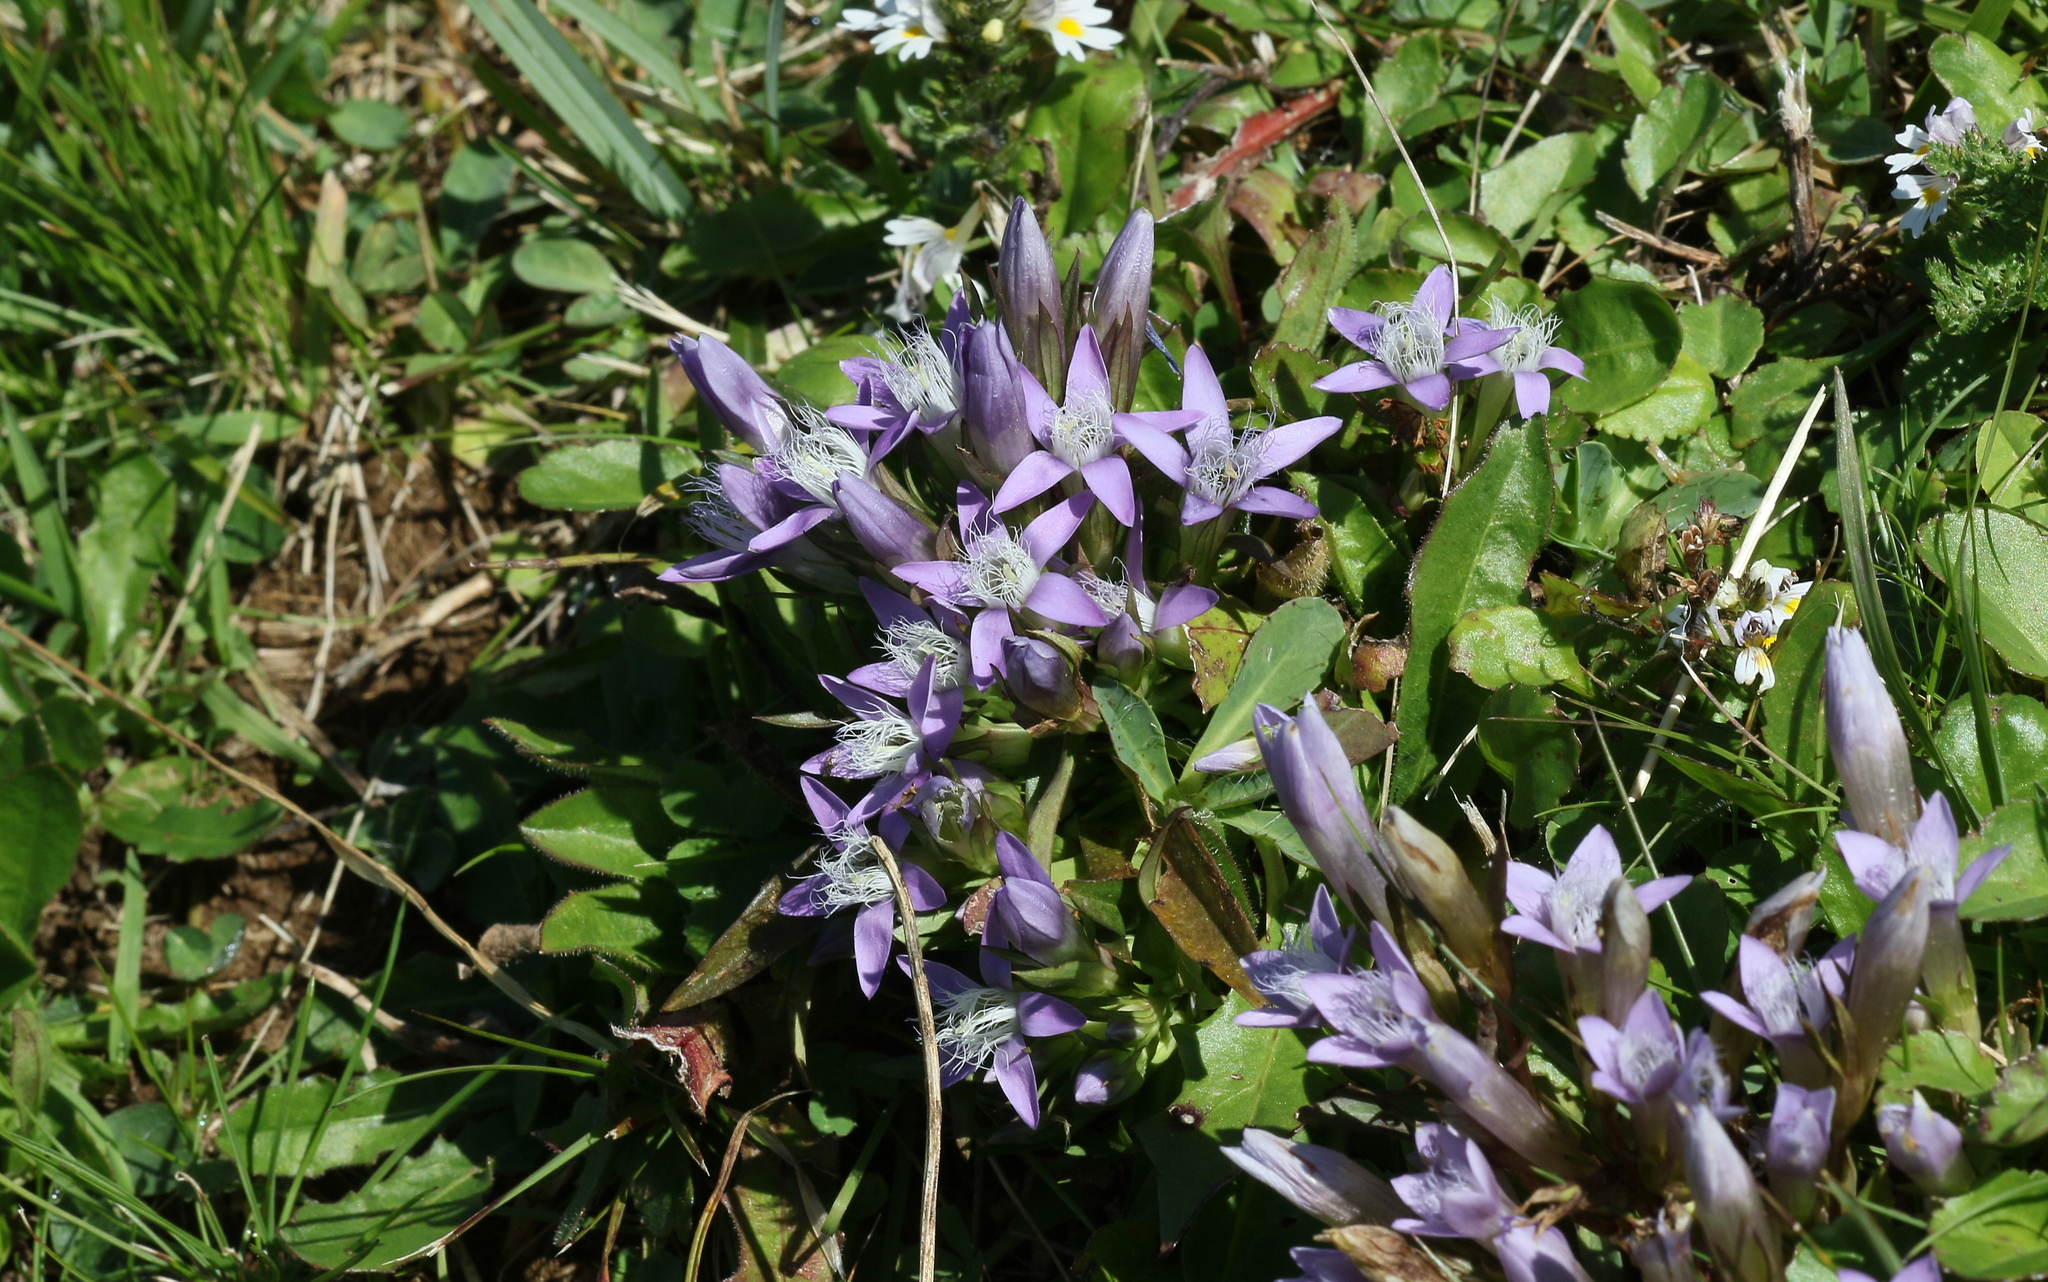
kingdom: Plantae
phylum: Tracheophyta
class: Magnoliopsida
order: Gentianales
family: Gentianaceae
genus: Gentianella
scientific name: Gentianella rhaetica
